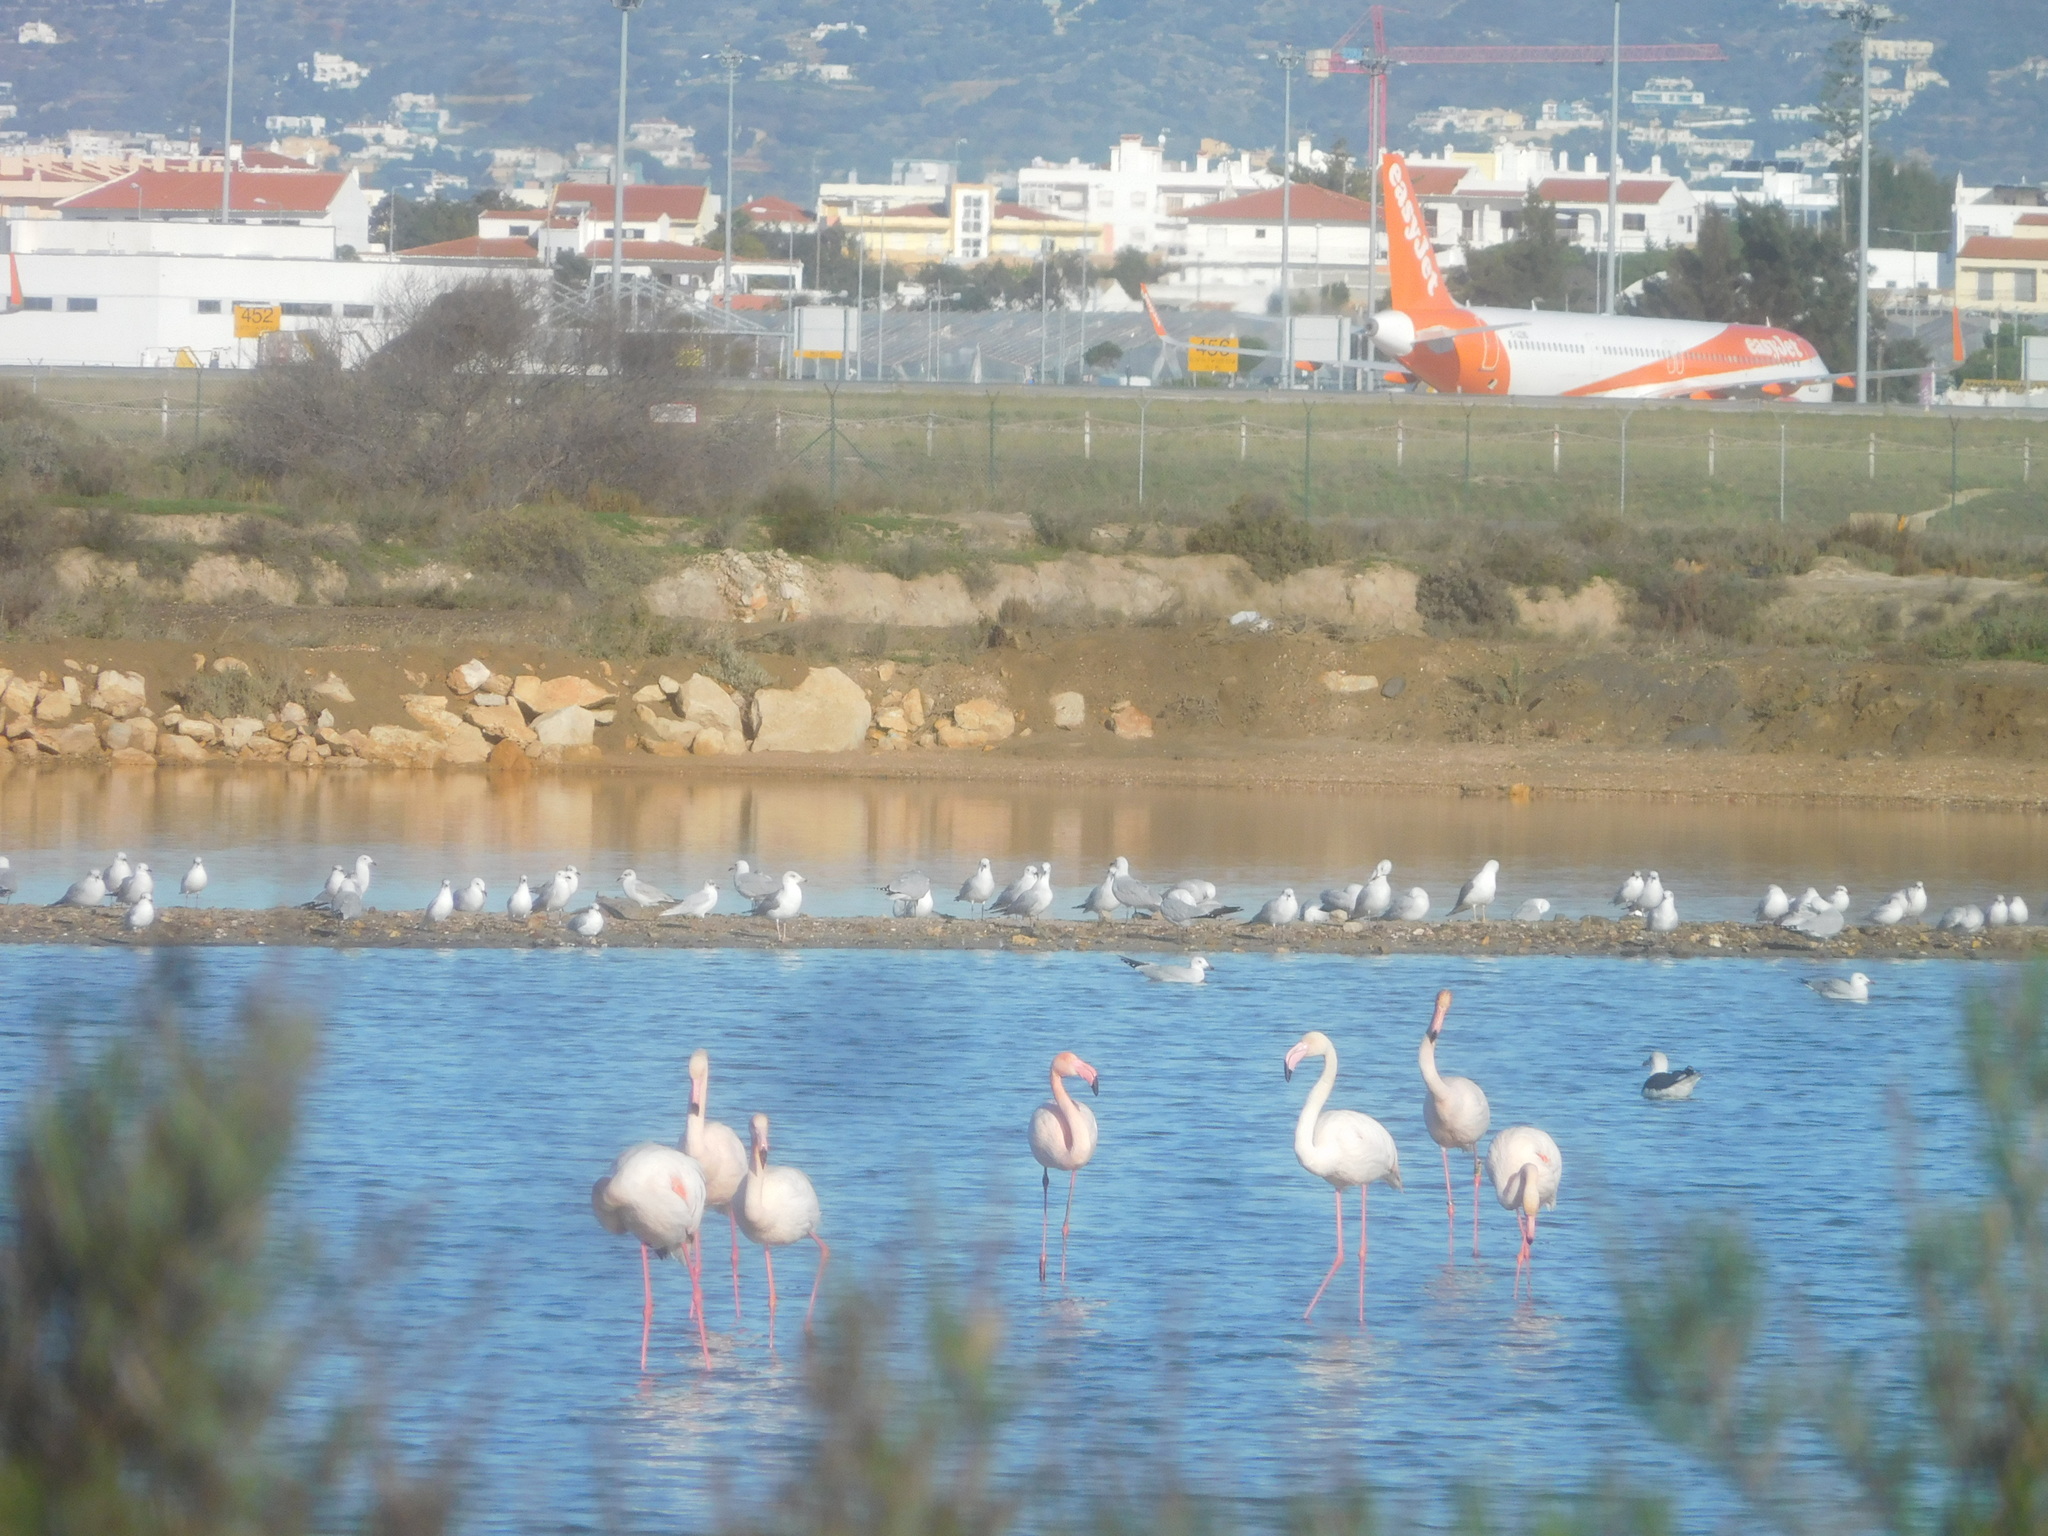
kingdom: Animalia
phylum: Chordata
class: Aves
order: Phoenicopteriformes
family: Phoenicopteridae
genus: Phoenicopterus
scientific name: Phoenicopterus roseus
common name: Greater flamingo
